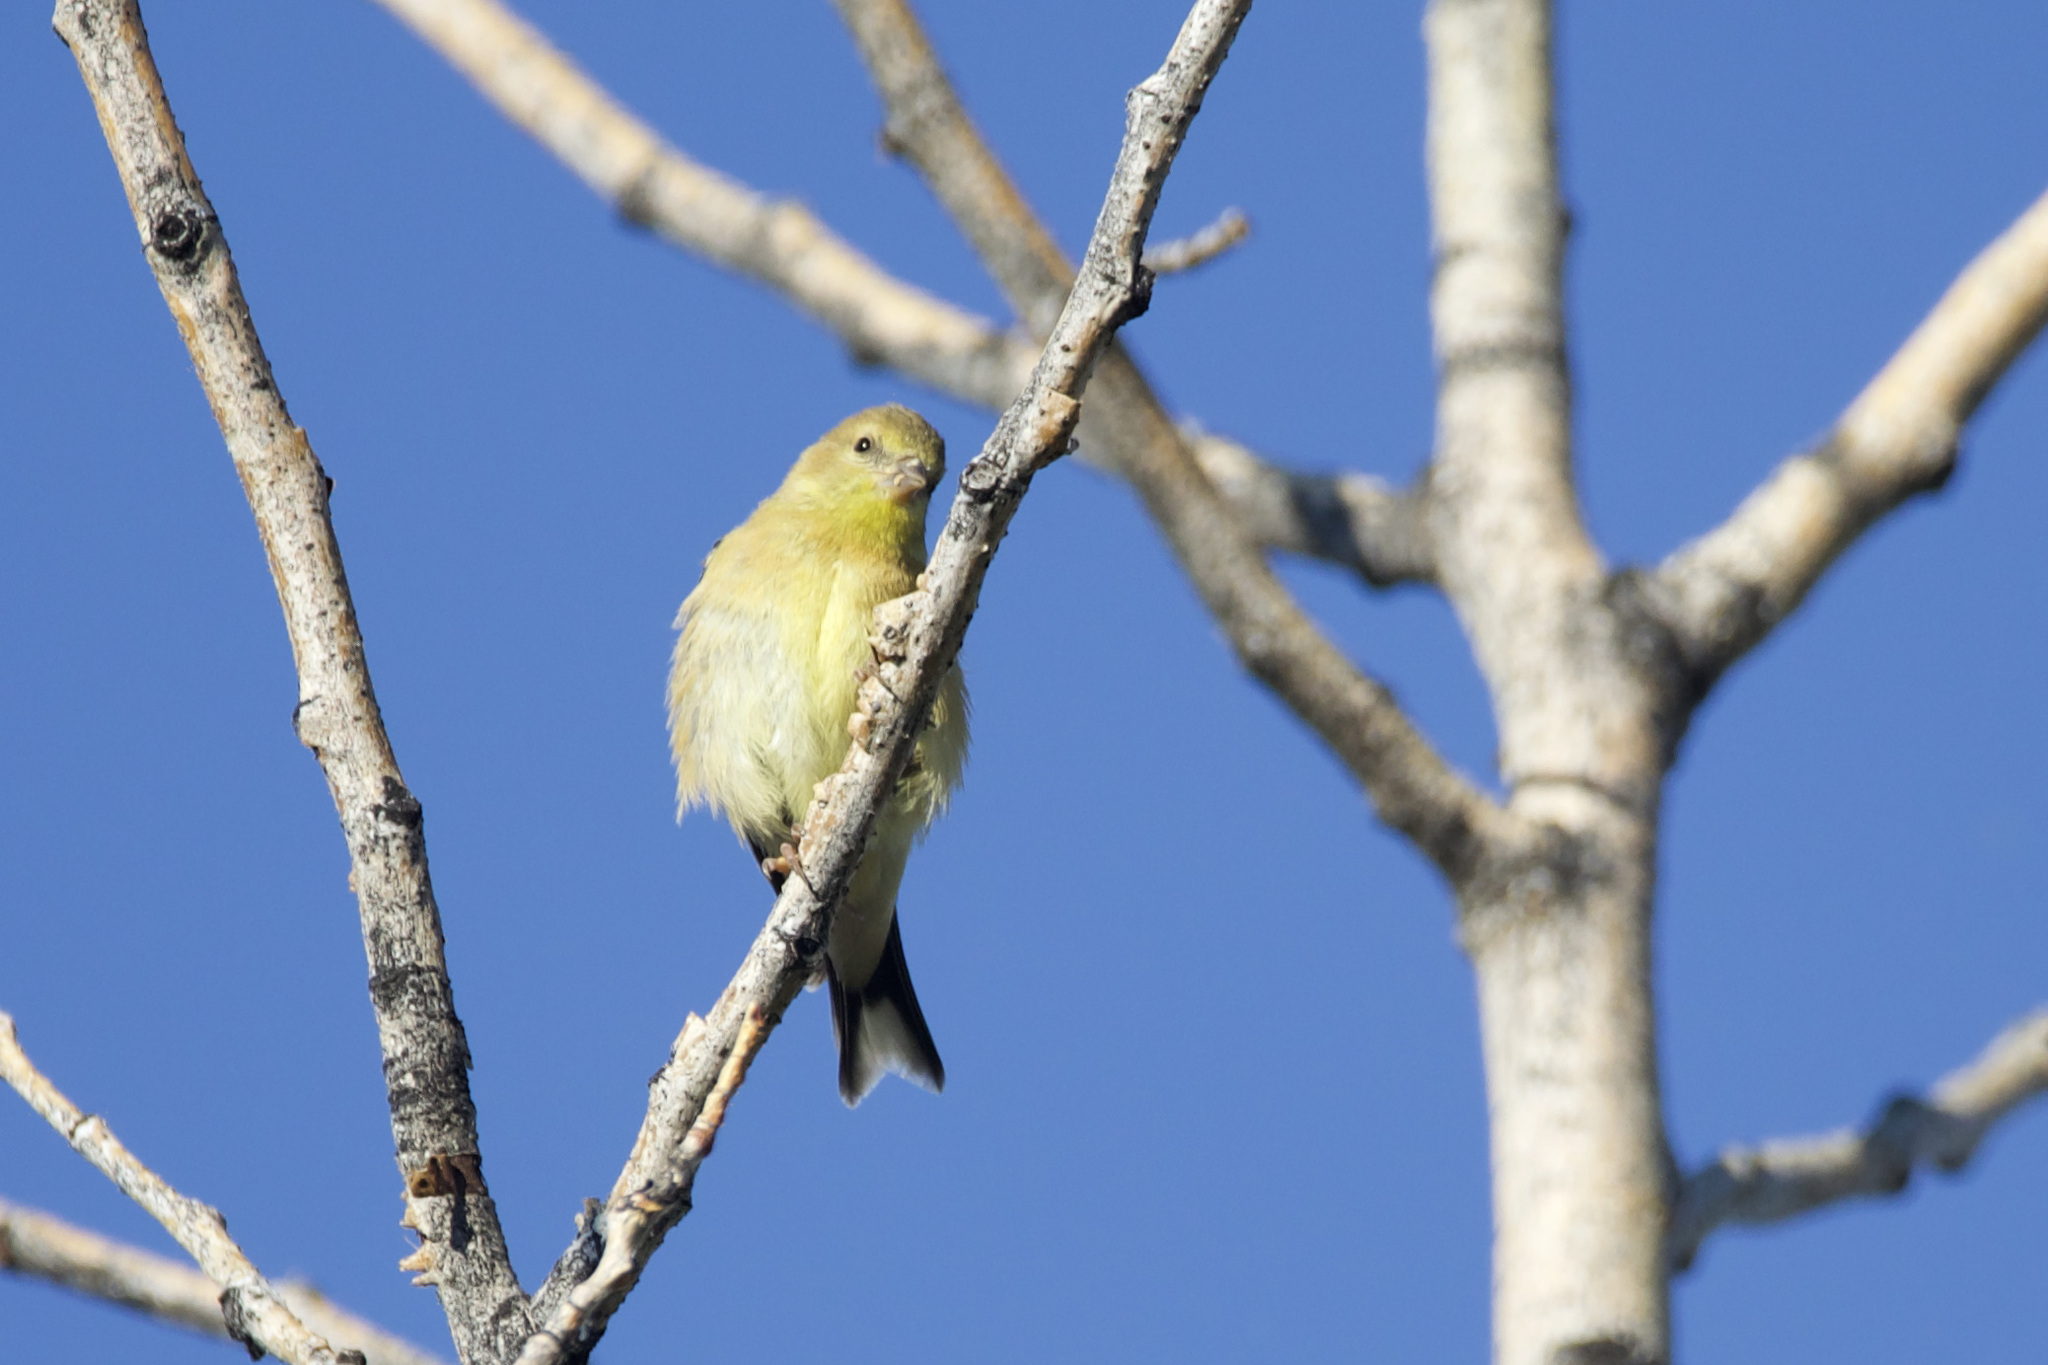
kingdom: Animalia
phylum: Chordata
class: Aves
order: Passeriformes
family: Fringillidae
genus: Spinus
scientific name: Spinus tristis
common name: American goldfinch
